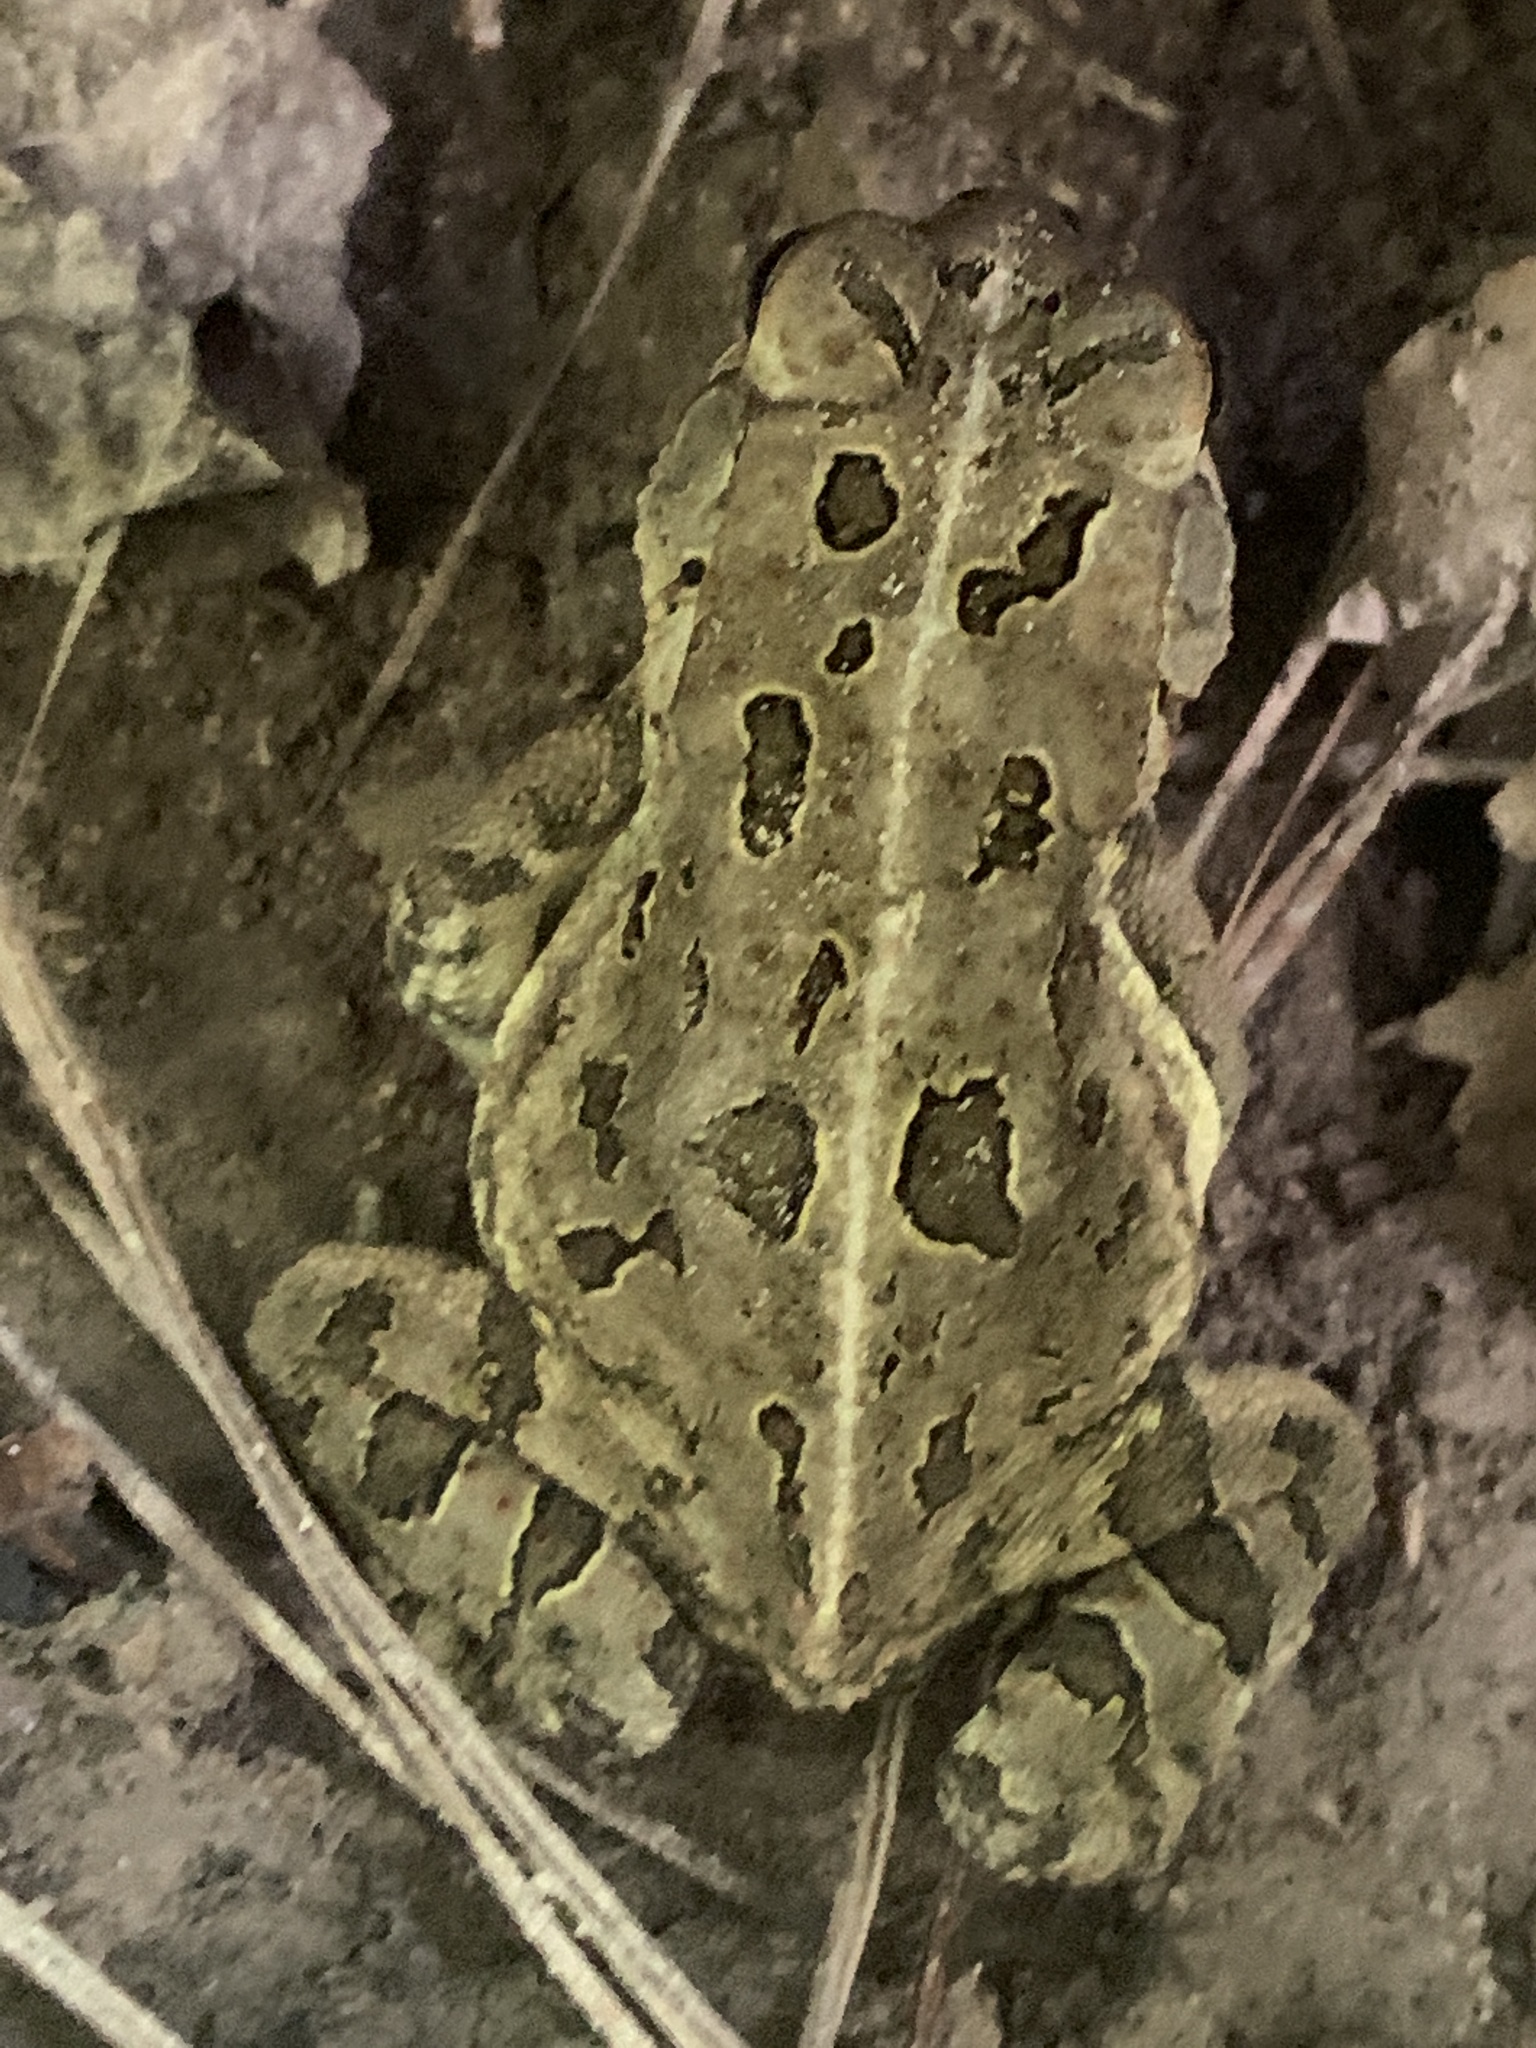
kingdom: Animalia
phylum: Chordata
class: Amphibia
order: Anura
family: Bufonidae
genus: Anaxyrus
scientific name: Anaxyrus fowleri
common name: Fowler's toad
